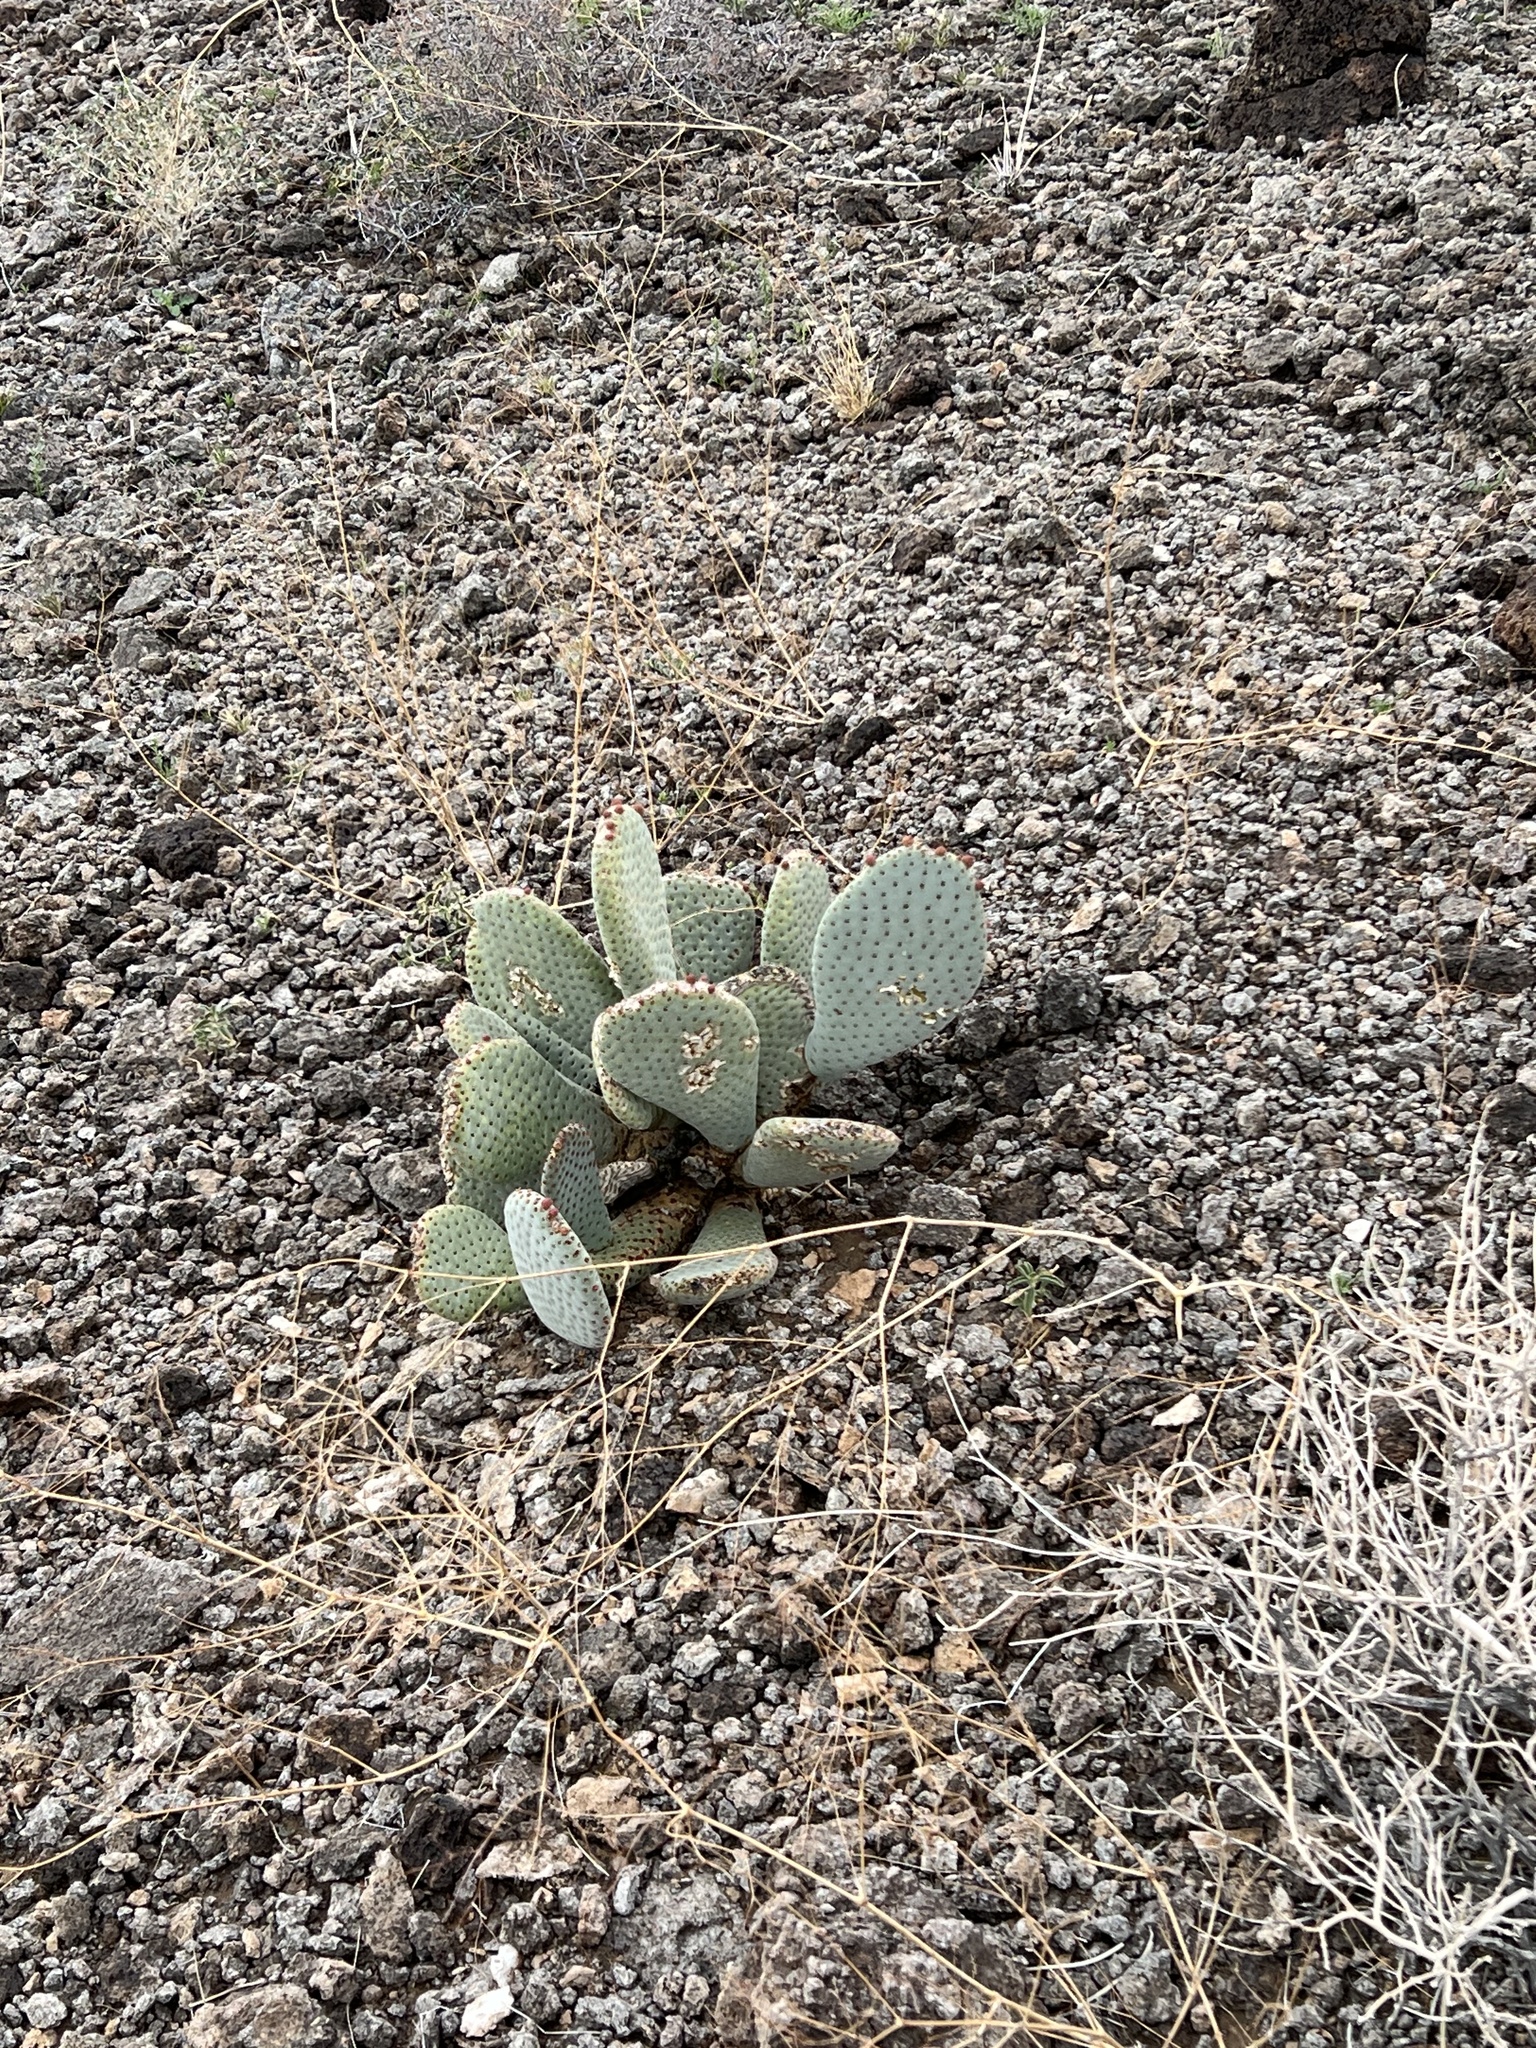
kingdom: Plantae
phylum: Tracheophyta
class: Magnoliopsida
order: Caryophyllales
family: Cactaceae
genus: Opuntia
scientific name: Opuntia basilaris
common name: Beavertail prickly-pear
